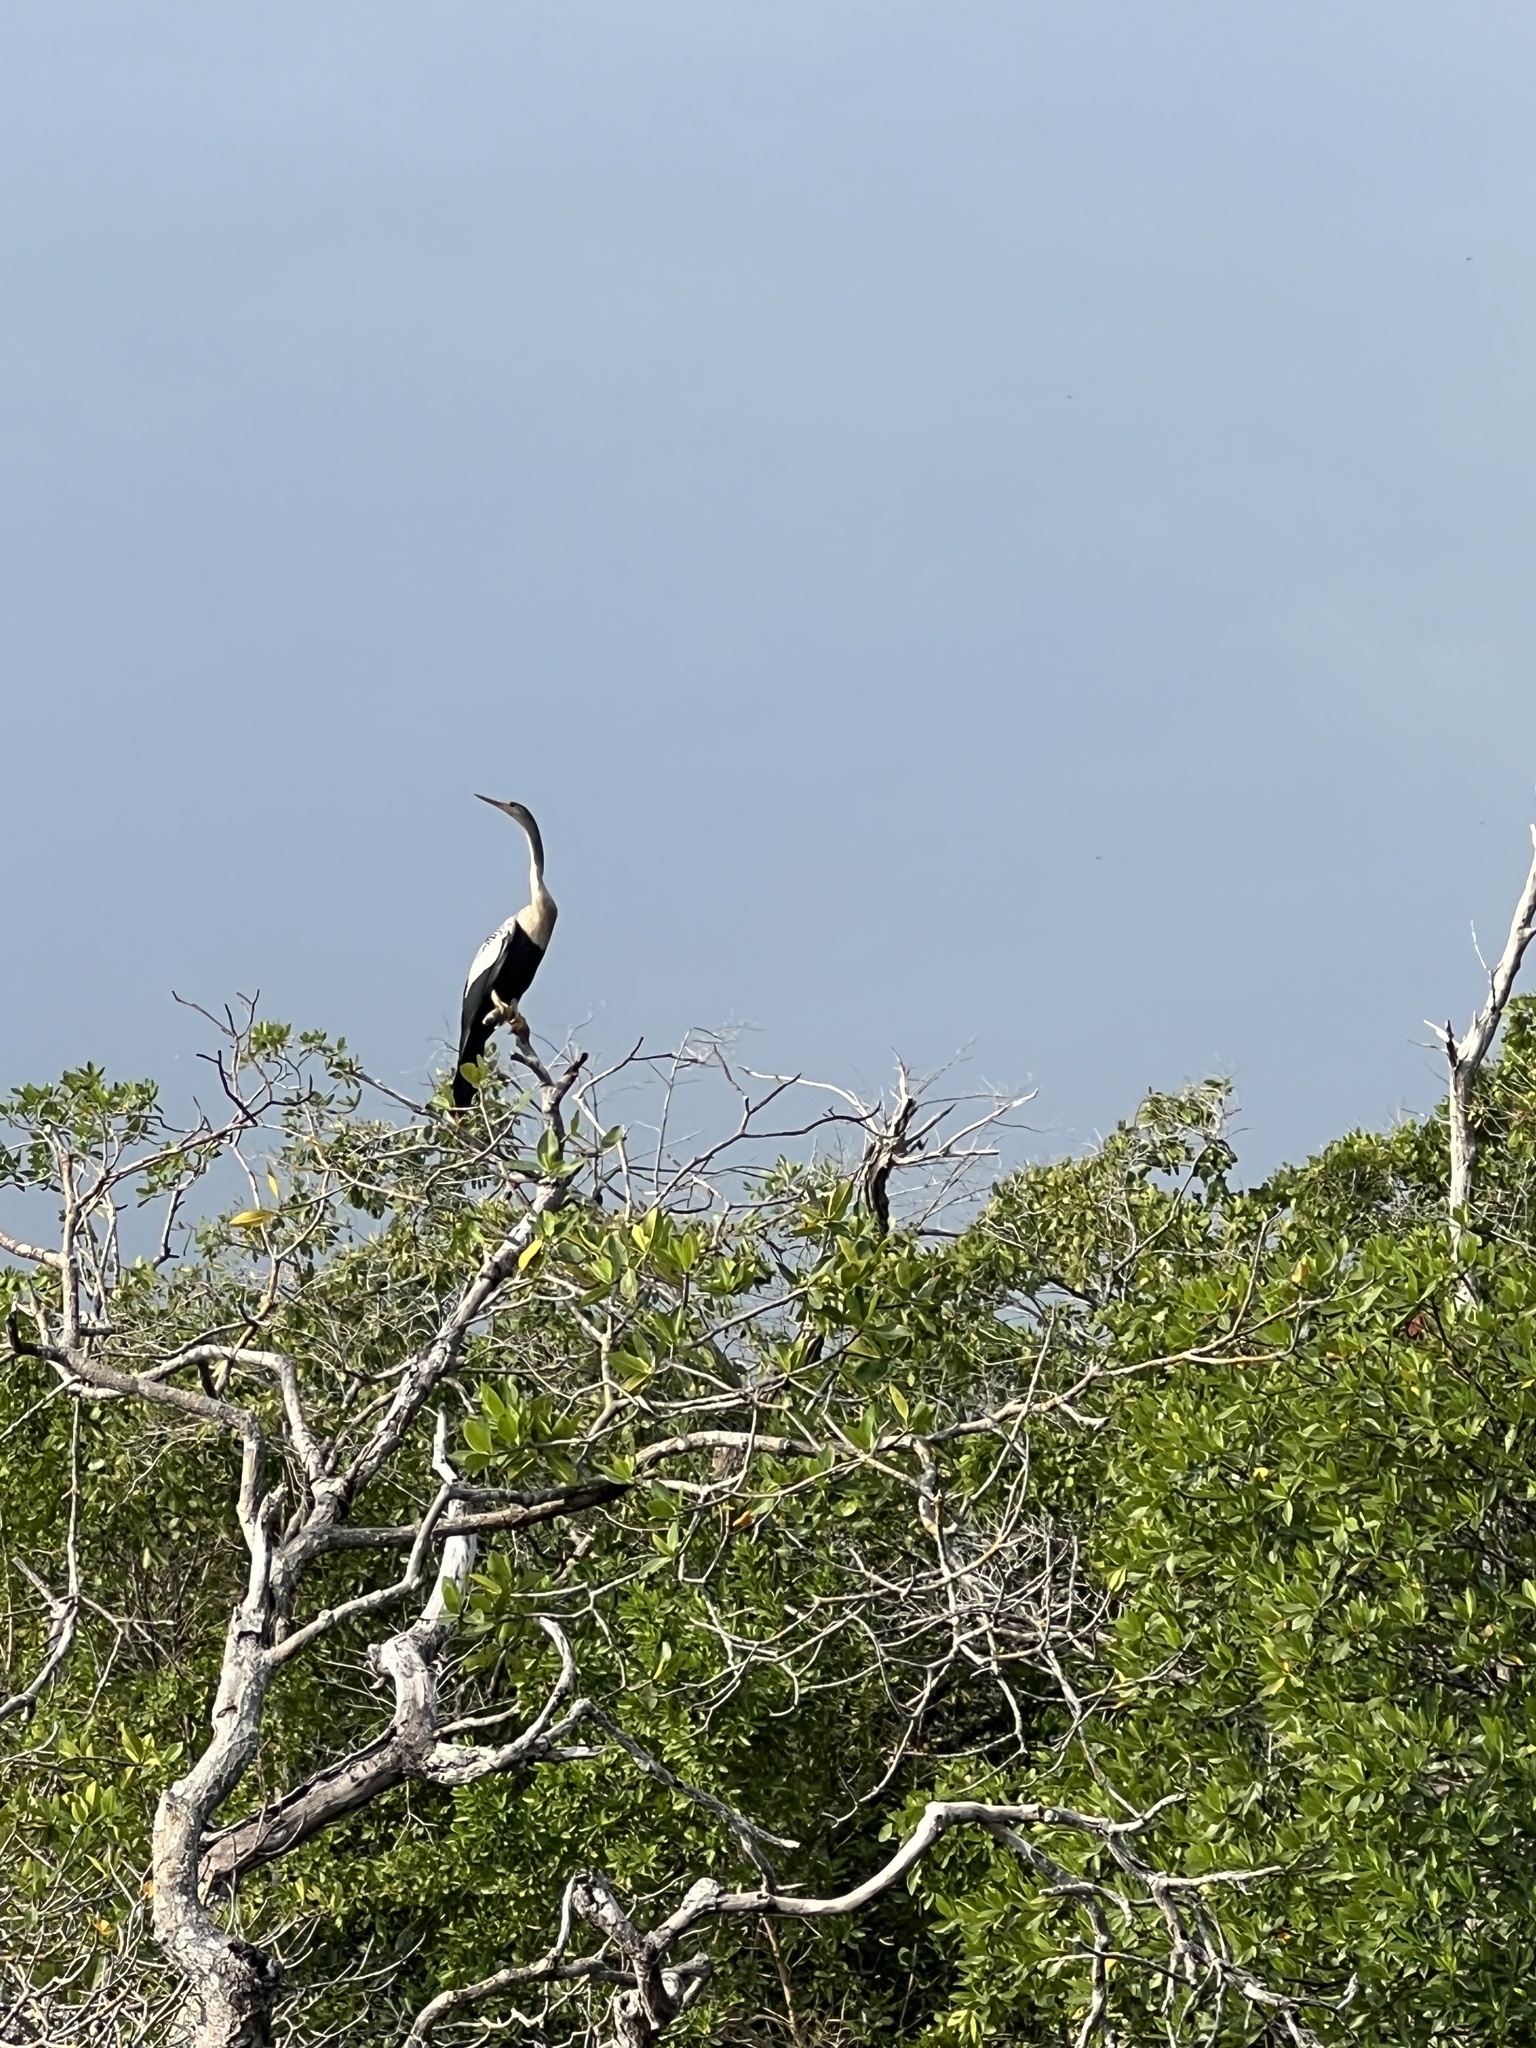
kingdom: Animalia
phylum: Chordata
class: Aves
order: Suliformes
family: Anhingidae
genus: Anhinga
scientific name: Anhinga anhinga
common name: Anhinga
